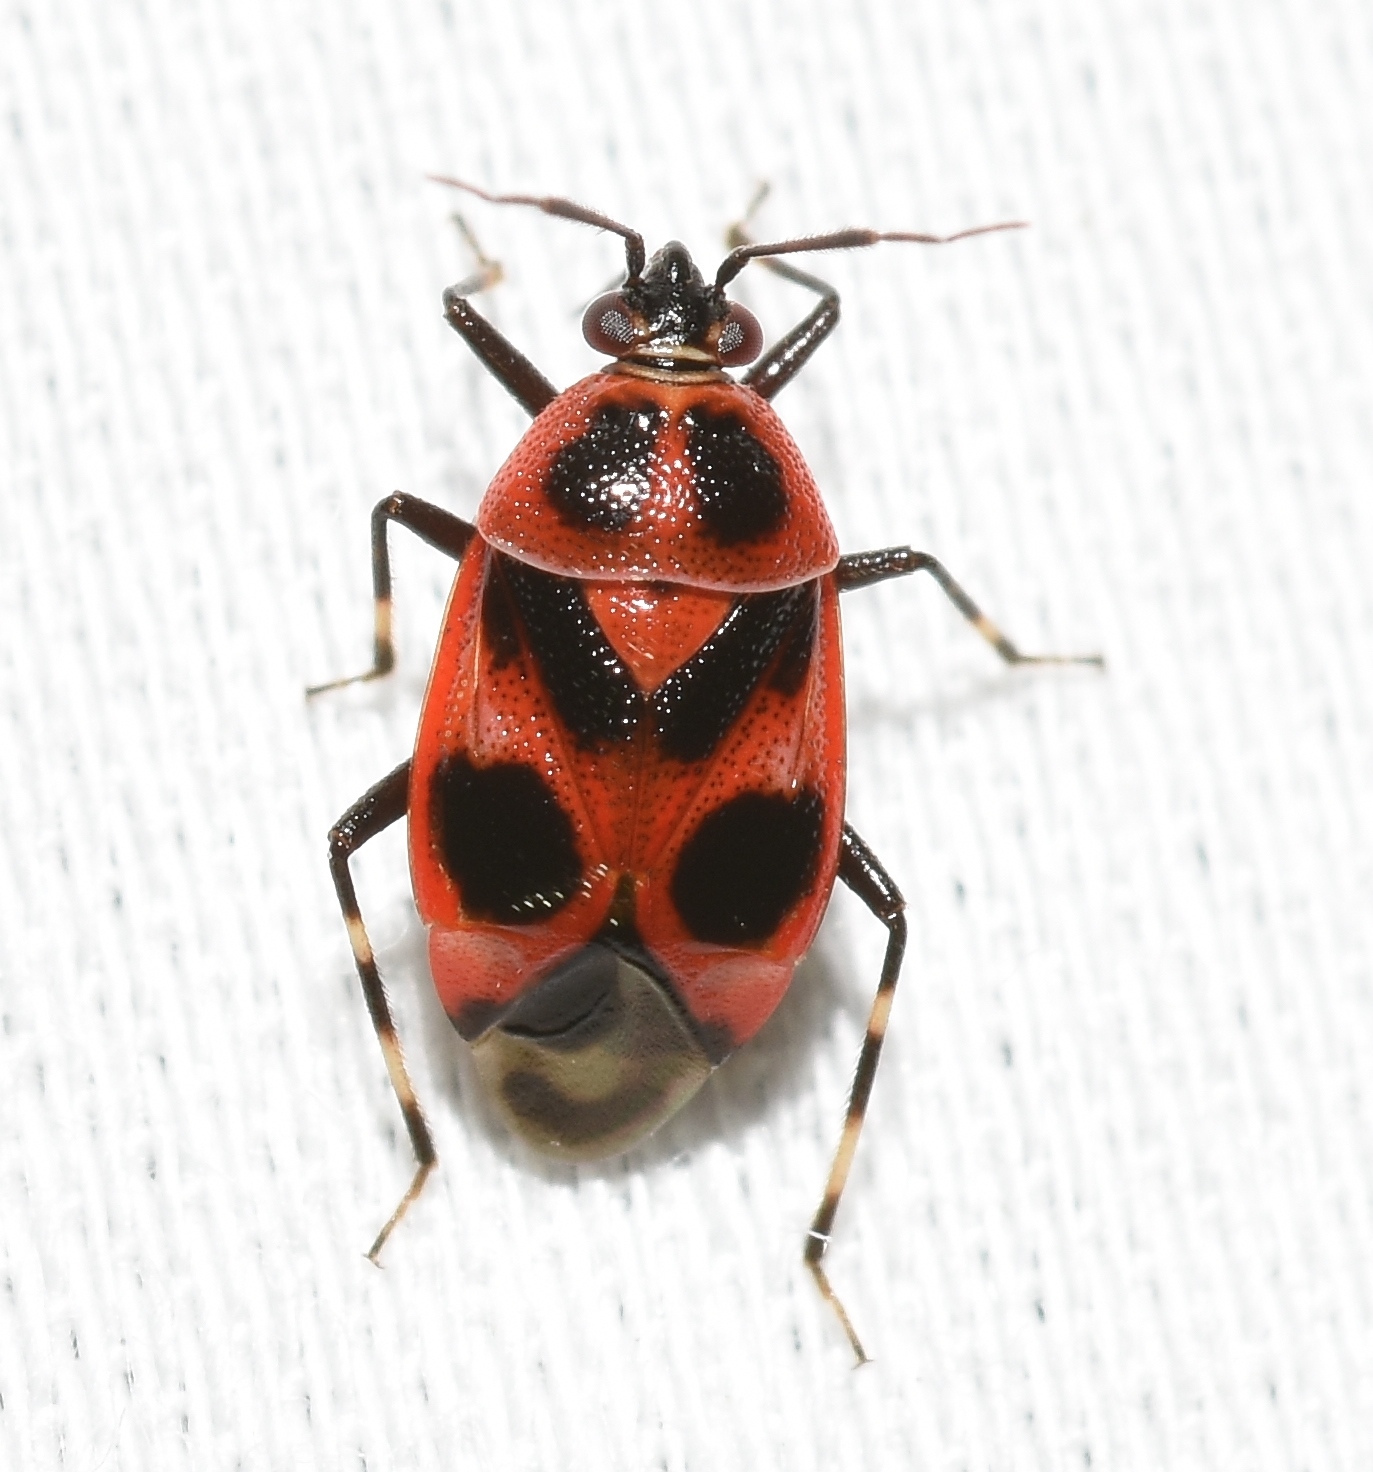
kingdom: Animalia
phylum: Arthropoda
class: Insecta
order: Hemiptera
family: Miridae
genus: Deraeocoris
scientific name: Deraeocoris histrio
